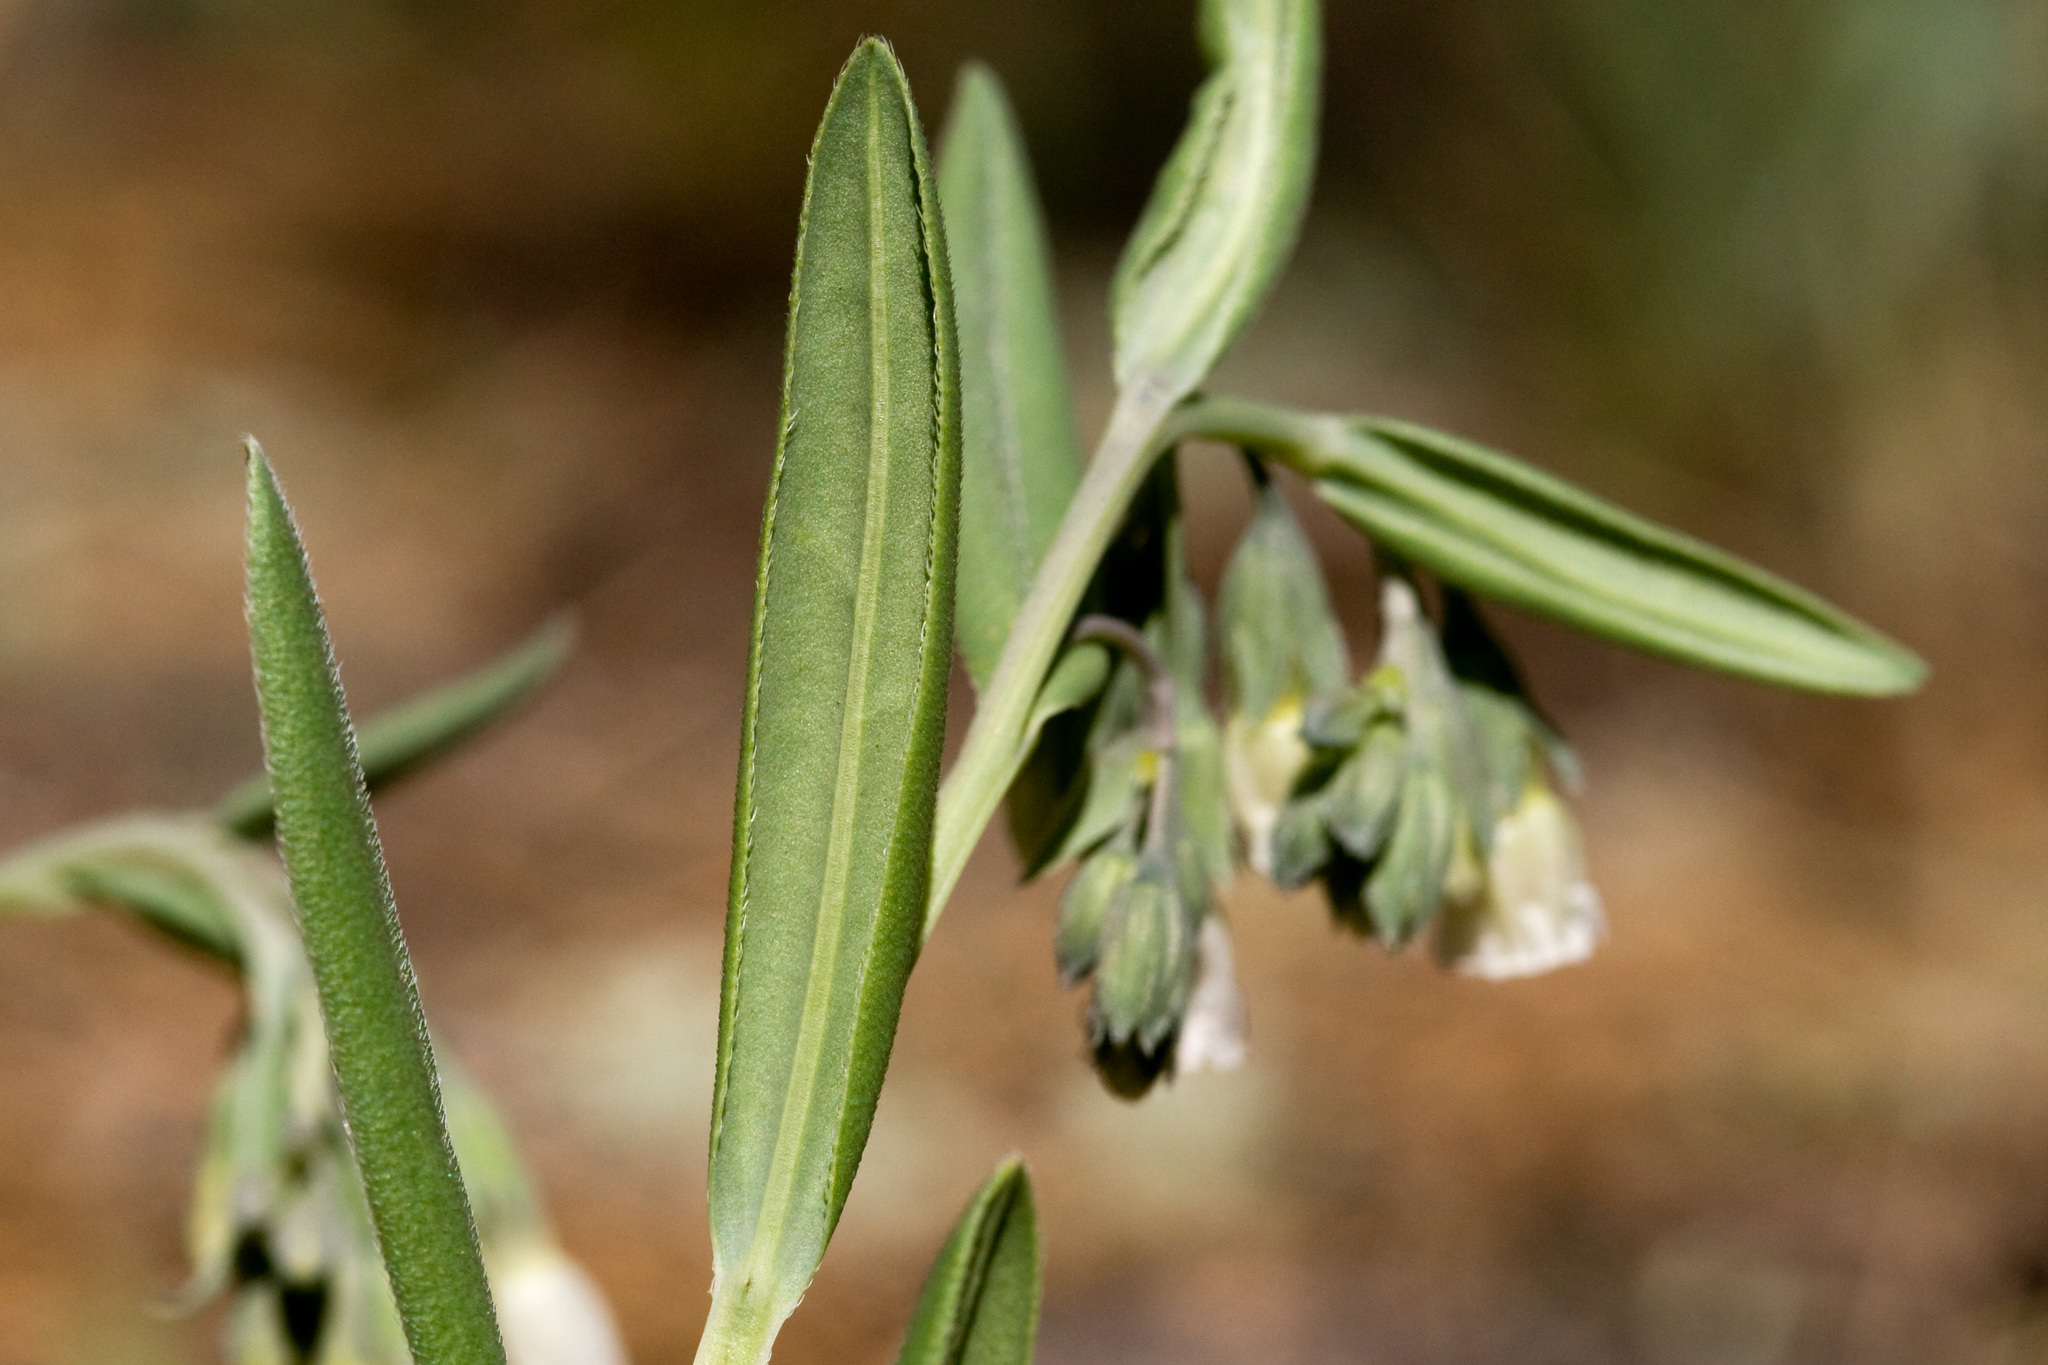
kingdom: Plantae
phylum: Tracheophyta
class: Magnoliopsida
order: Boraginales
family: Boraginaceae
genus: Mertensia
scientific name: Mertensia fendleri
